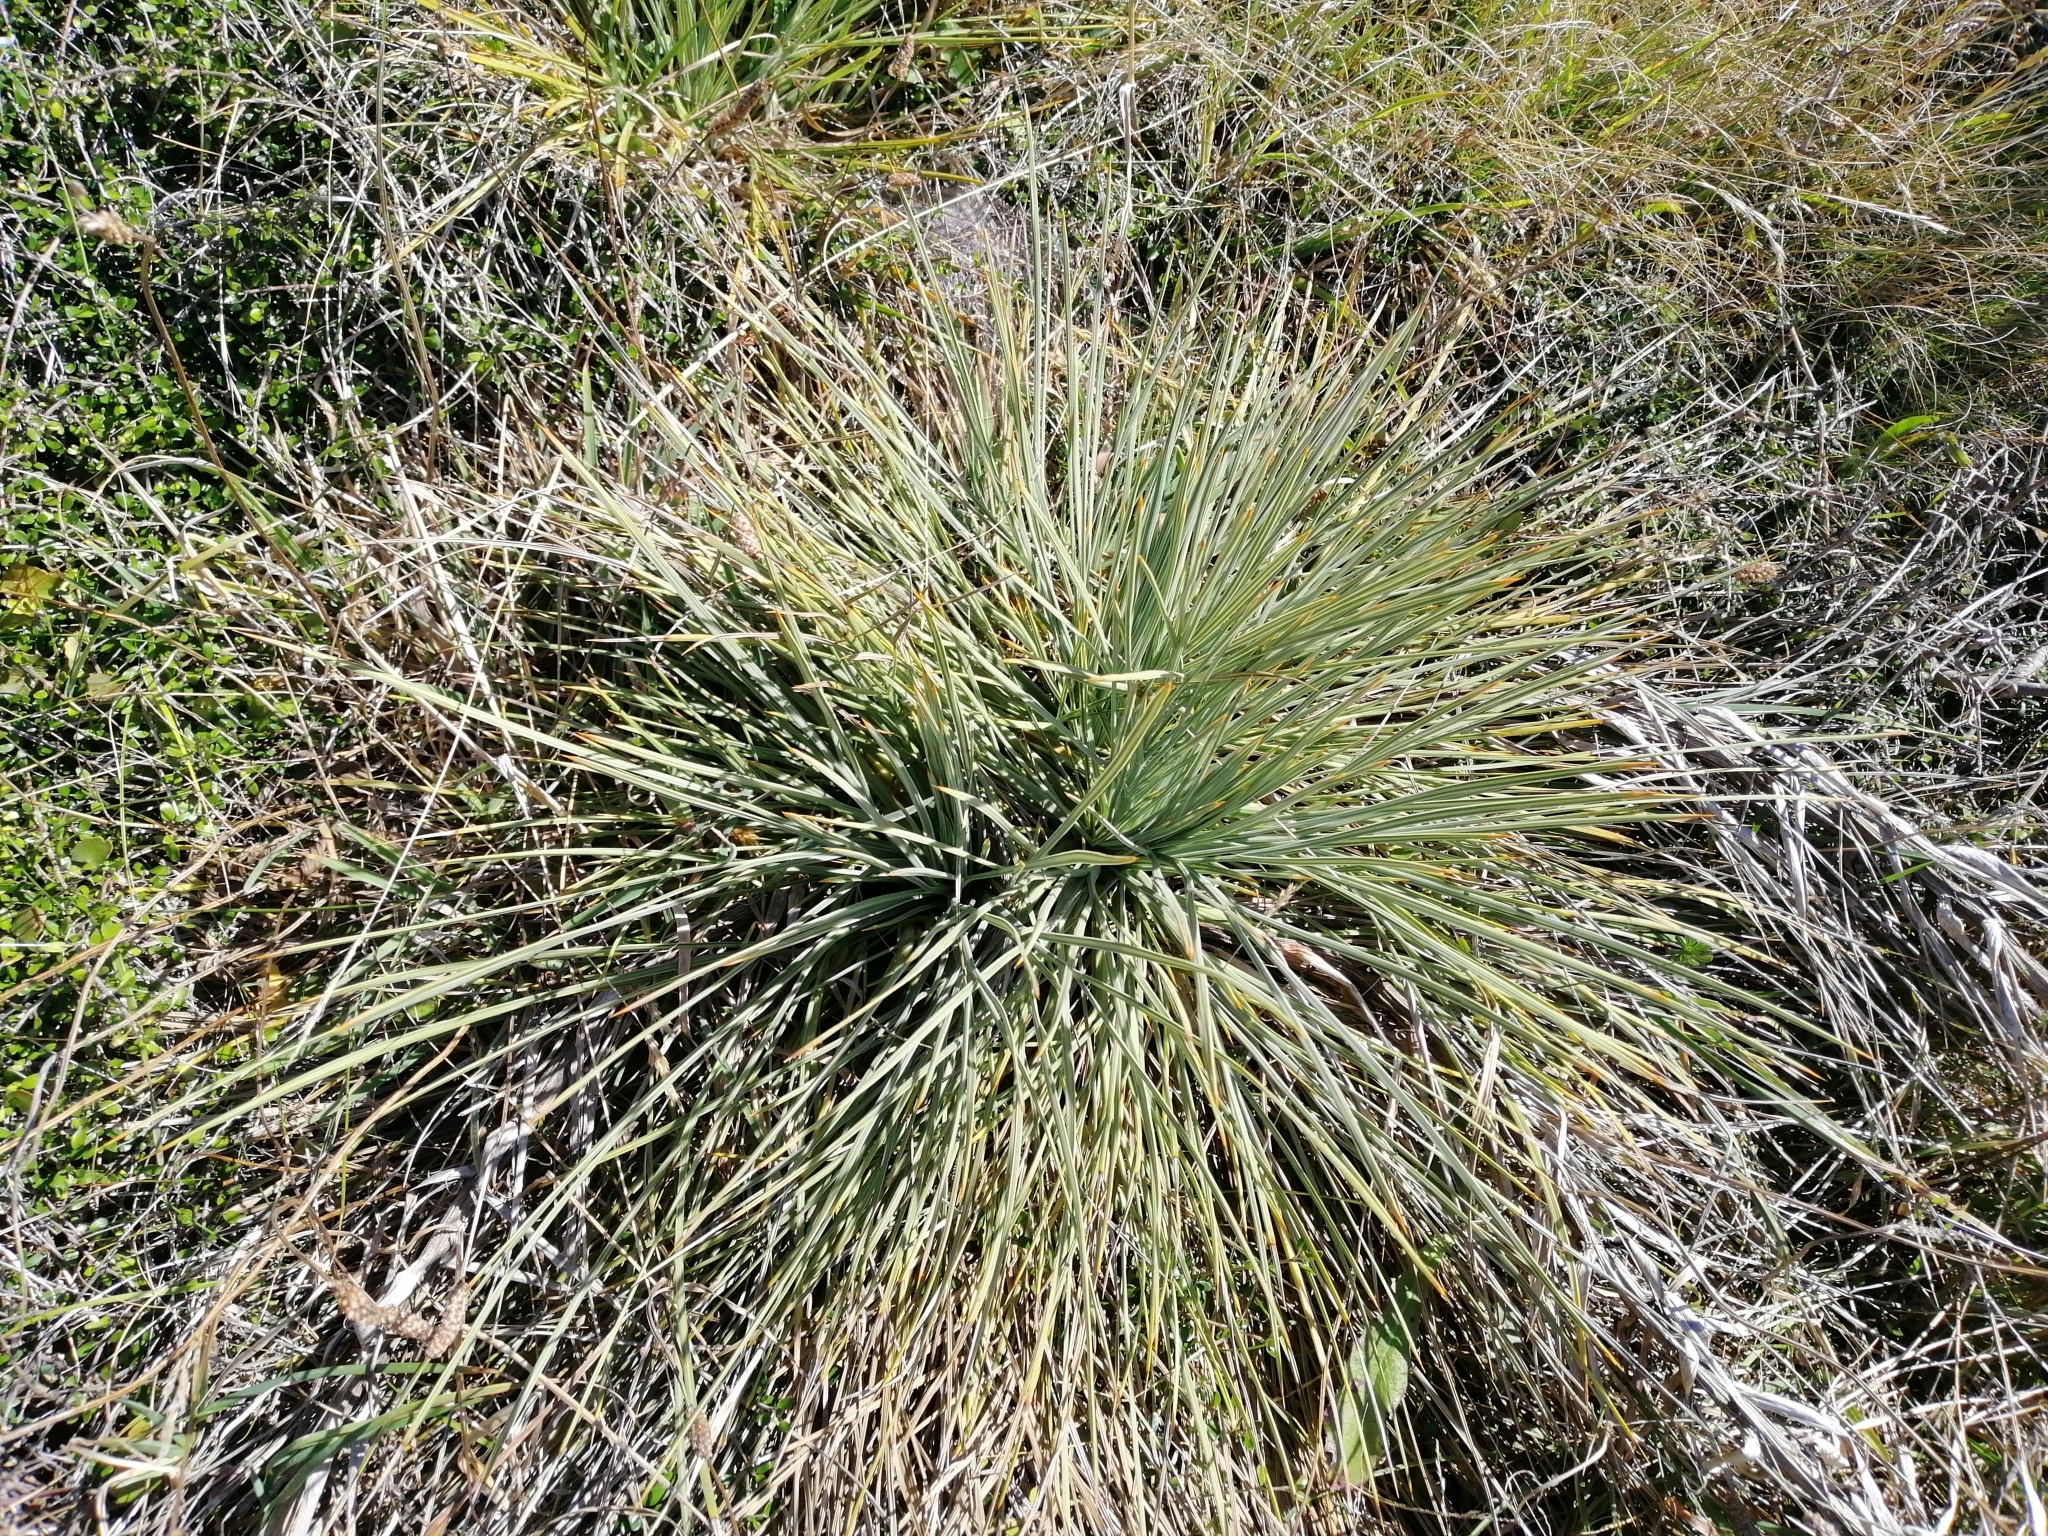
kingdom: Plantae
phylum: Tracheophyta
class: Magnoliopsida
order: Apiales
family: Apiaceae
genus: Aciphylla
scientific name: Aciphylla squarrosa
